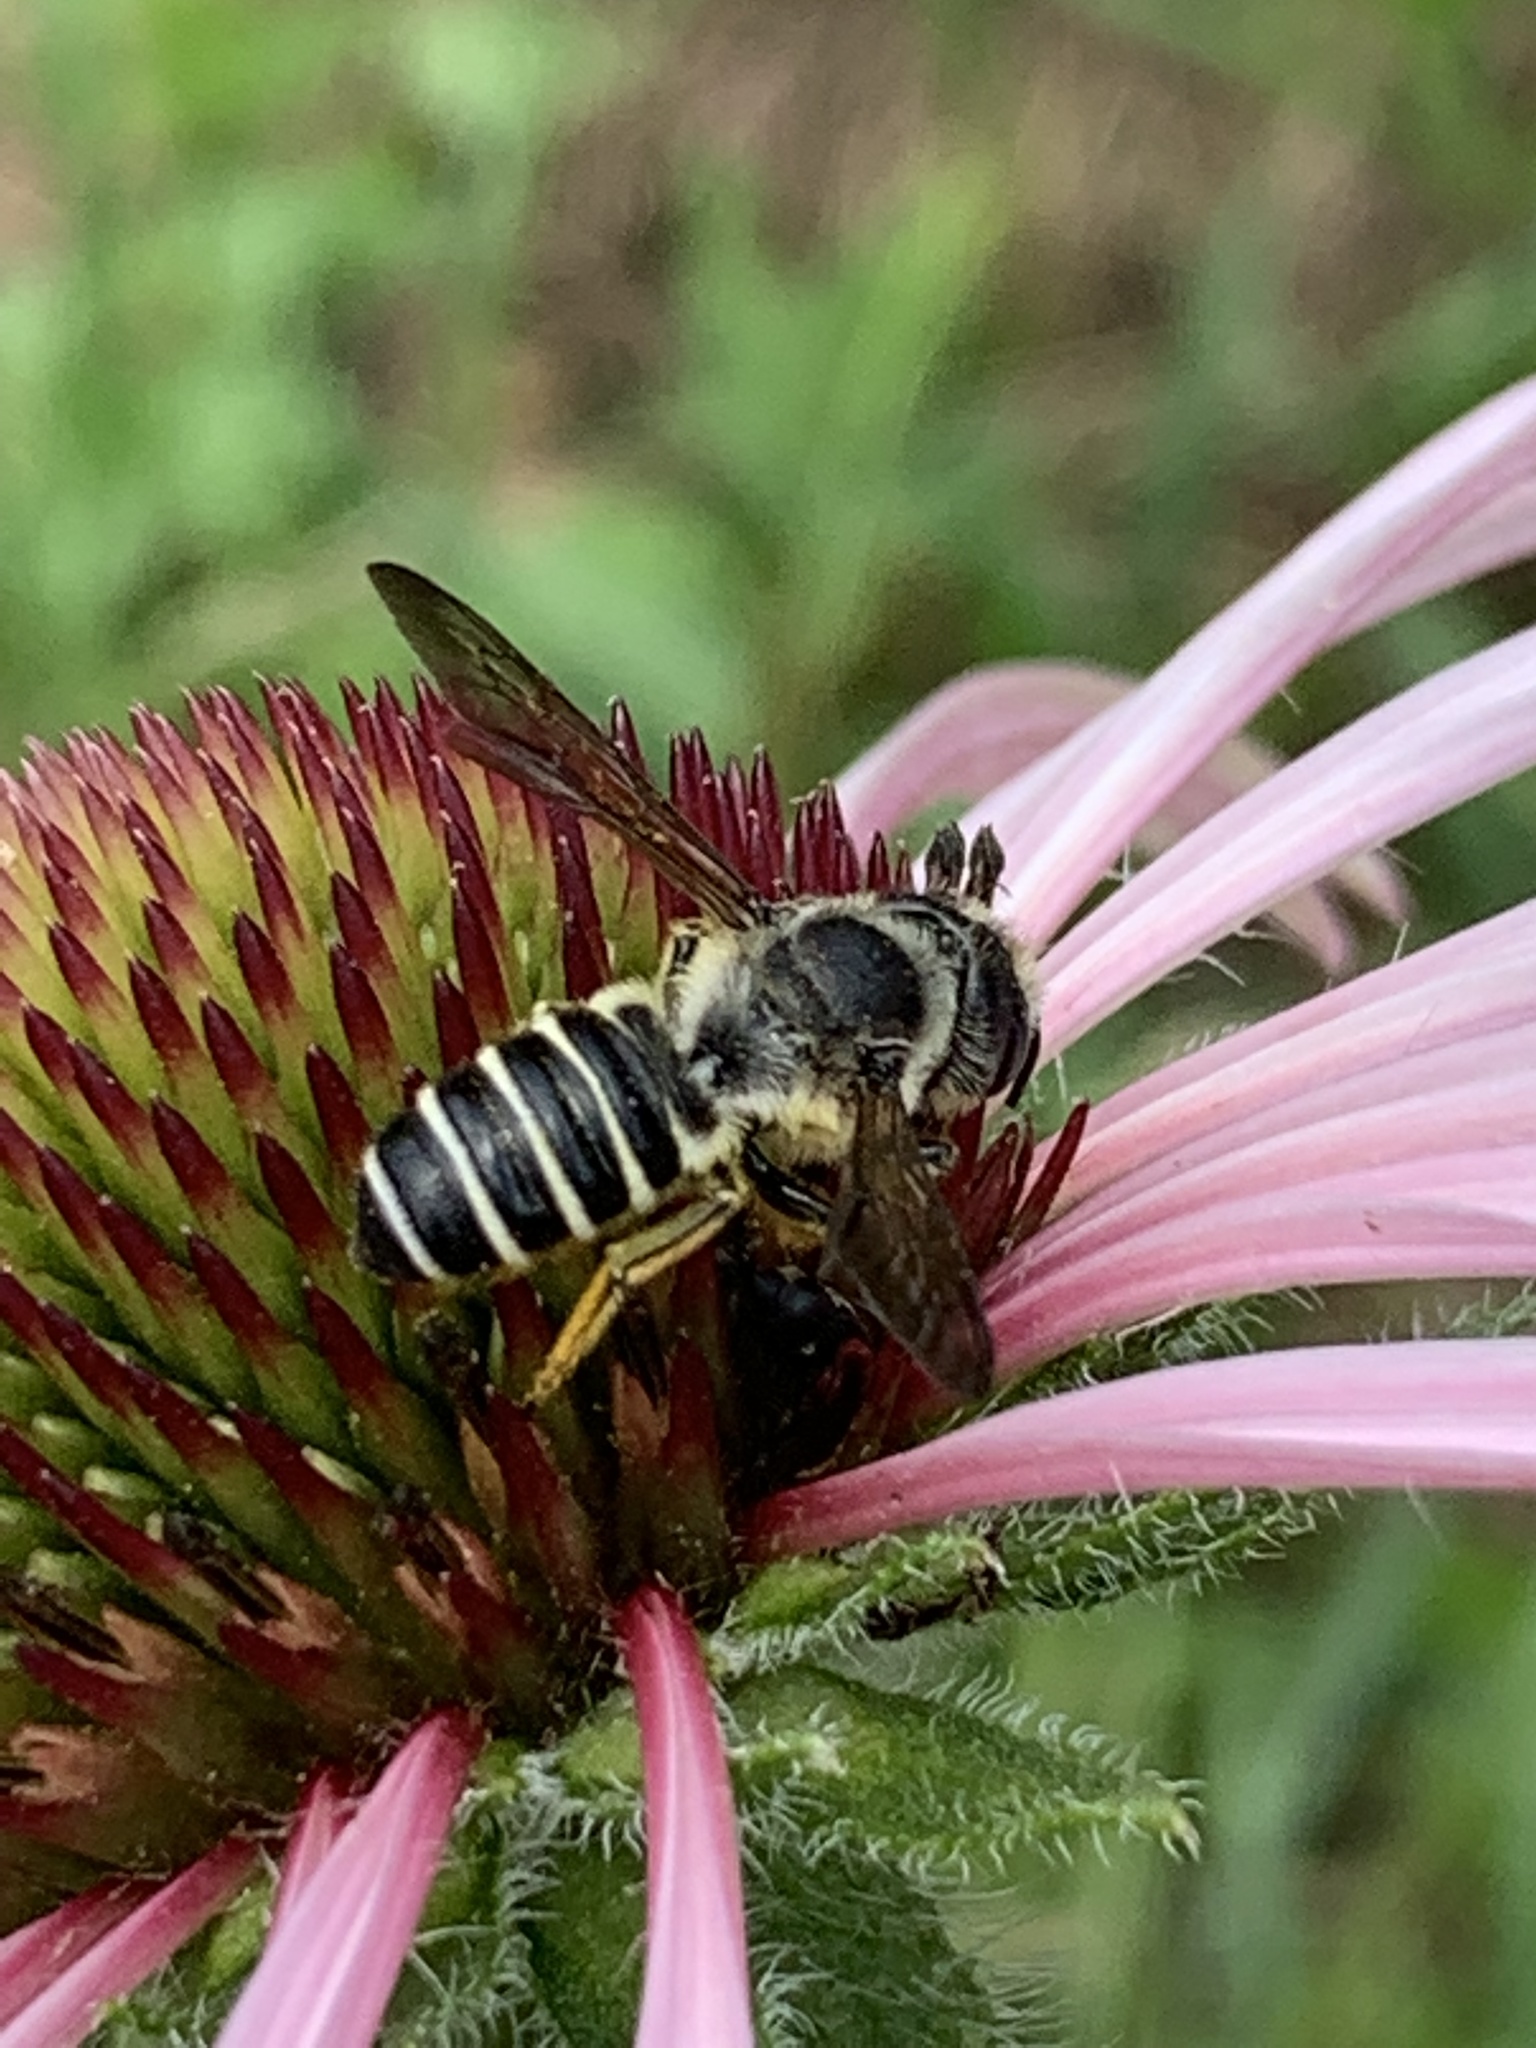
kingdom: Animalia
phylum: Arthropoda
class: Insecta
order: Hymenoptera
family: Megachilidae
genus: Megachile
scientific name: Megachile pugnata
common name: Pugnacious leafcutter bee
